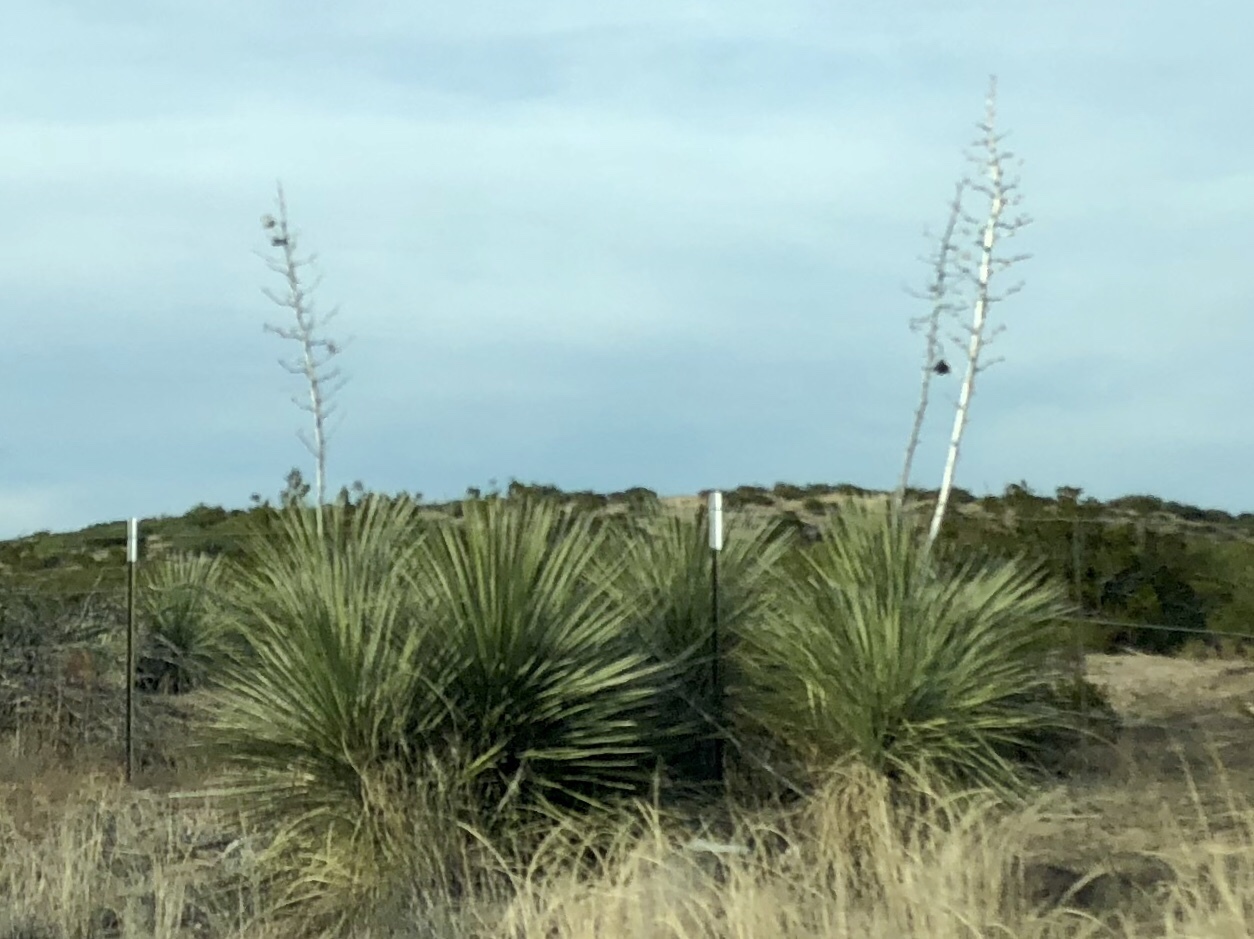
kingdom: Plantae
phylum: Tracheophyta
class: Liliopsida
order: Asparagales
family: Asparagaceae
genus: Yucca
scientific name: Yucca elata
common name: Palmella
